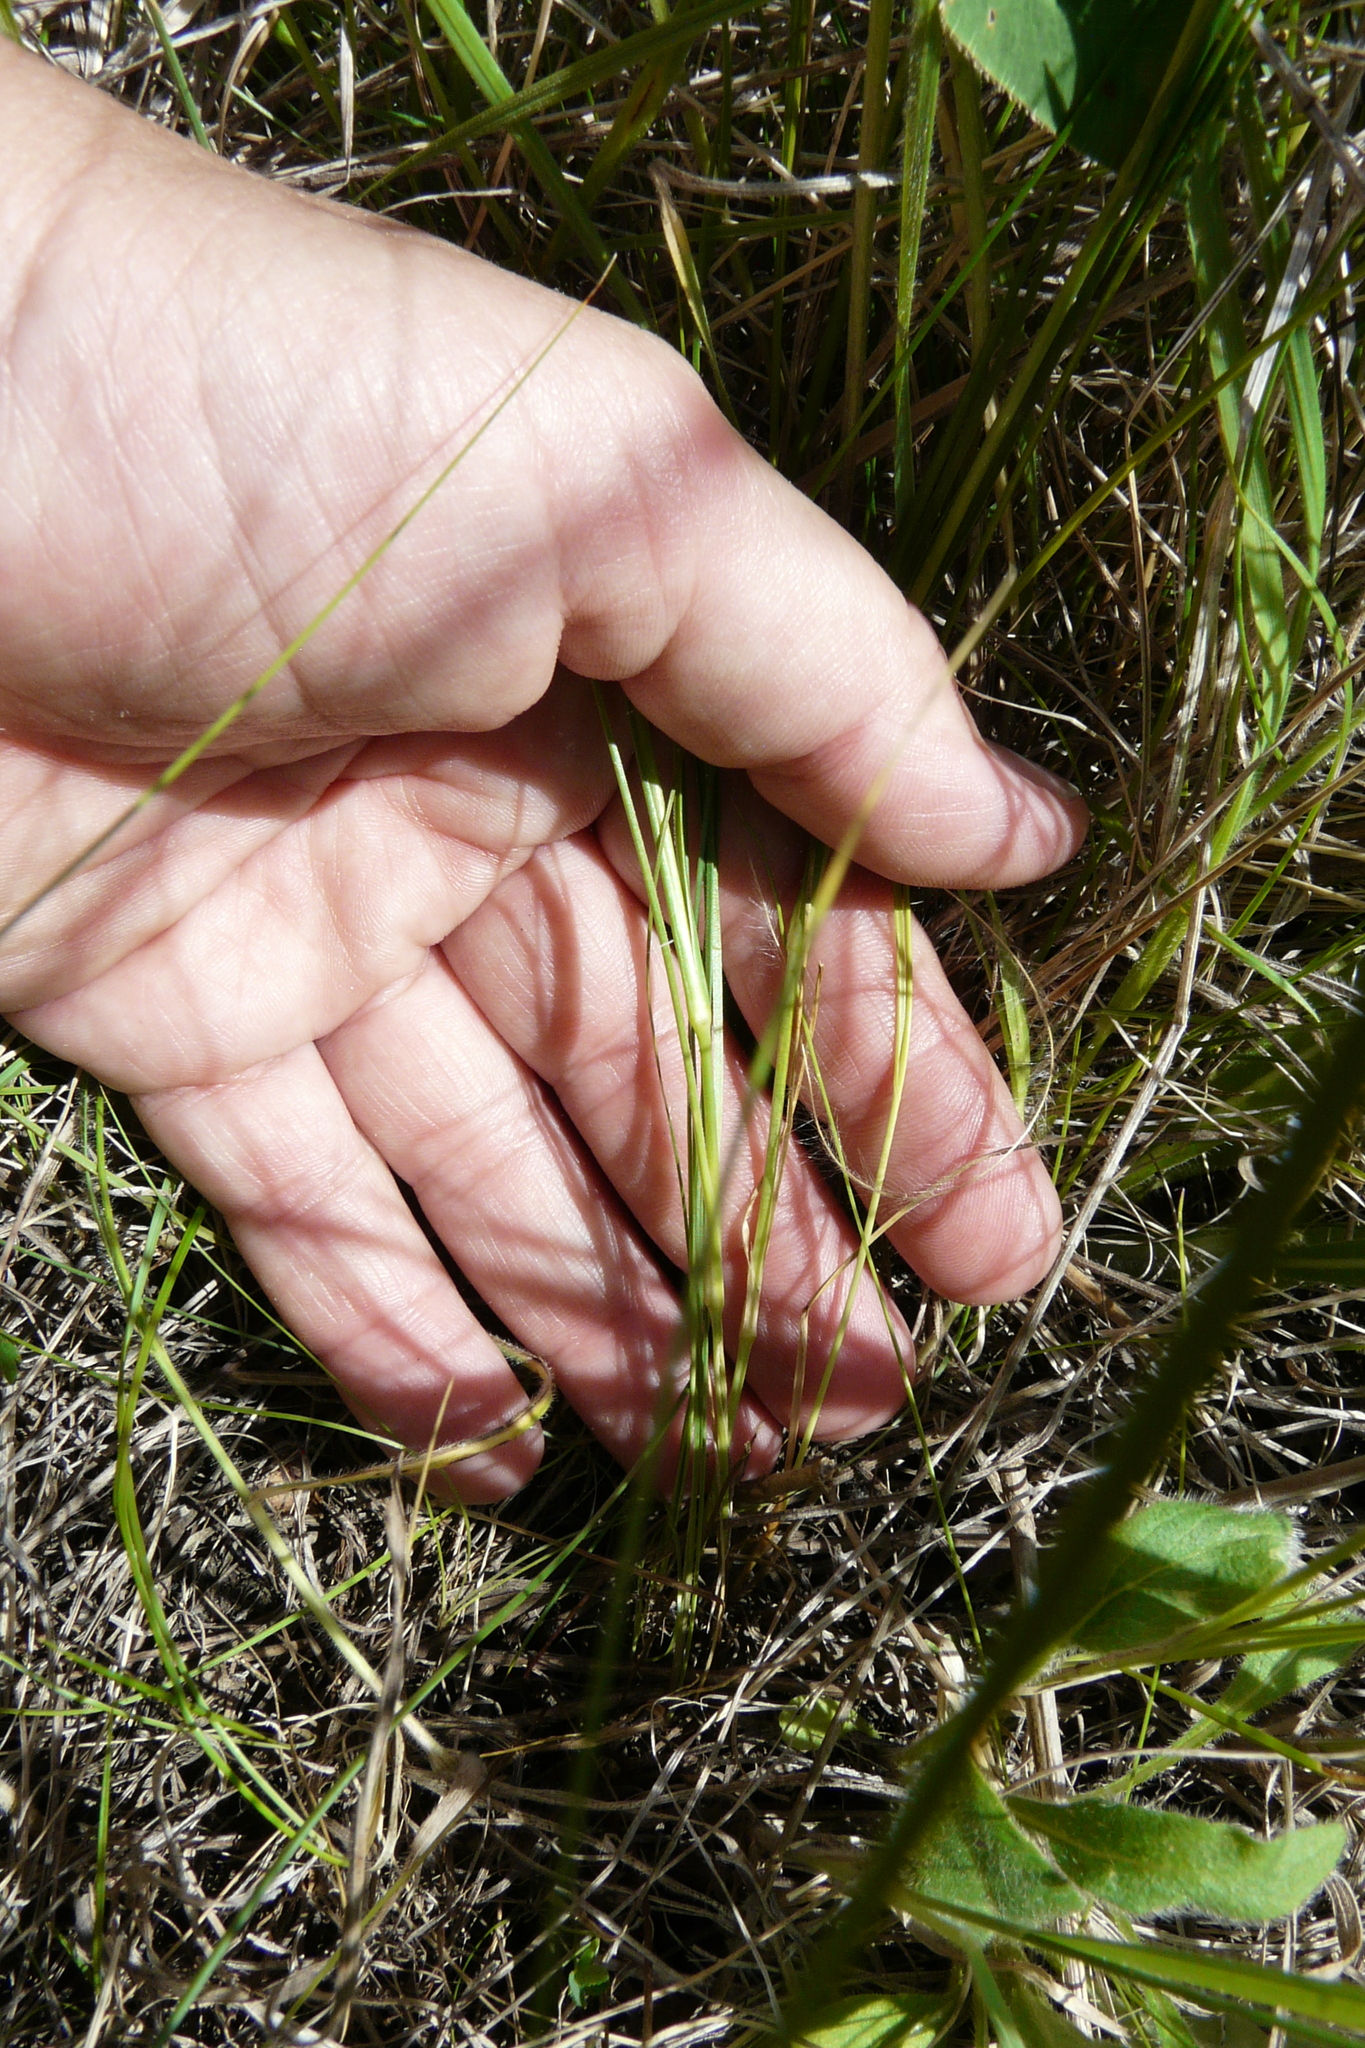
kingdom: Plantae
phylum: Tracheophyta
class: Magnoliopsida
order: Caryophyllales
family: Caryophyllaceae
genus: Eremogone
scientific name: Eremogone saxatilis
